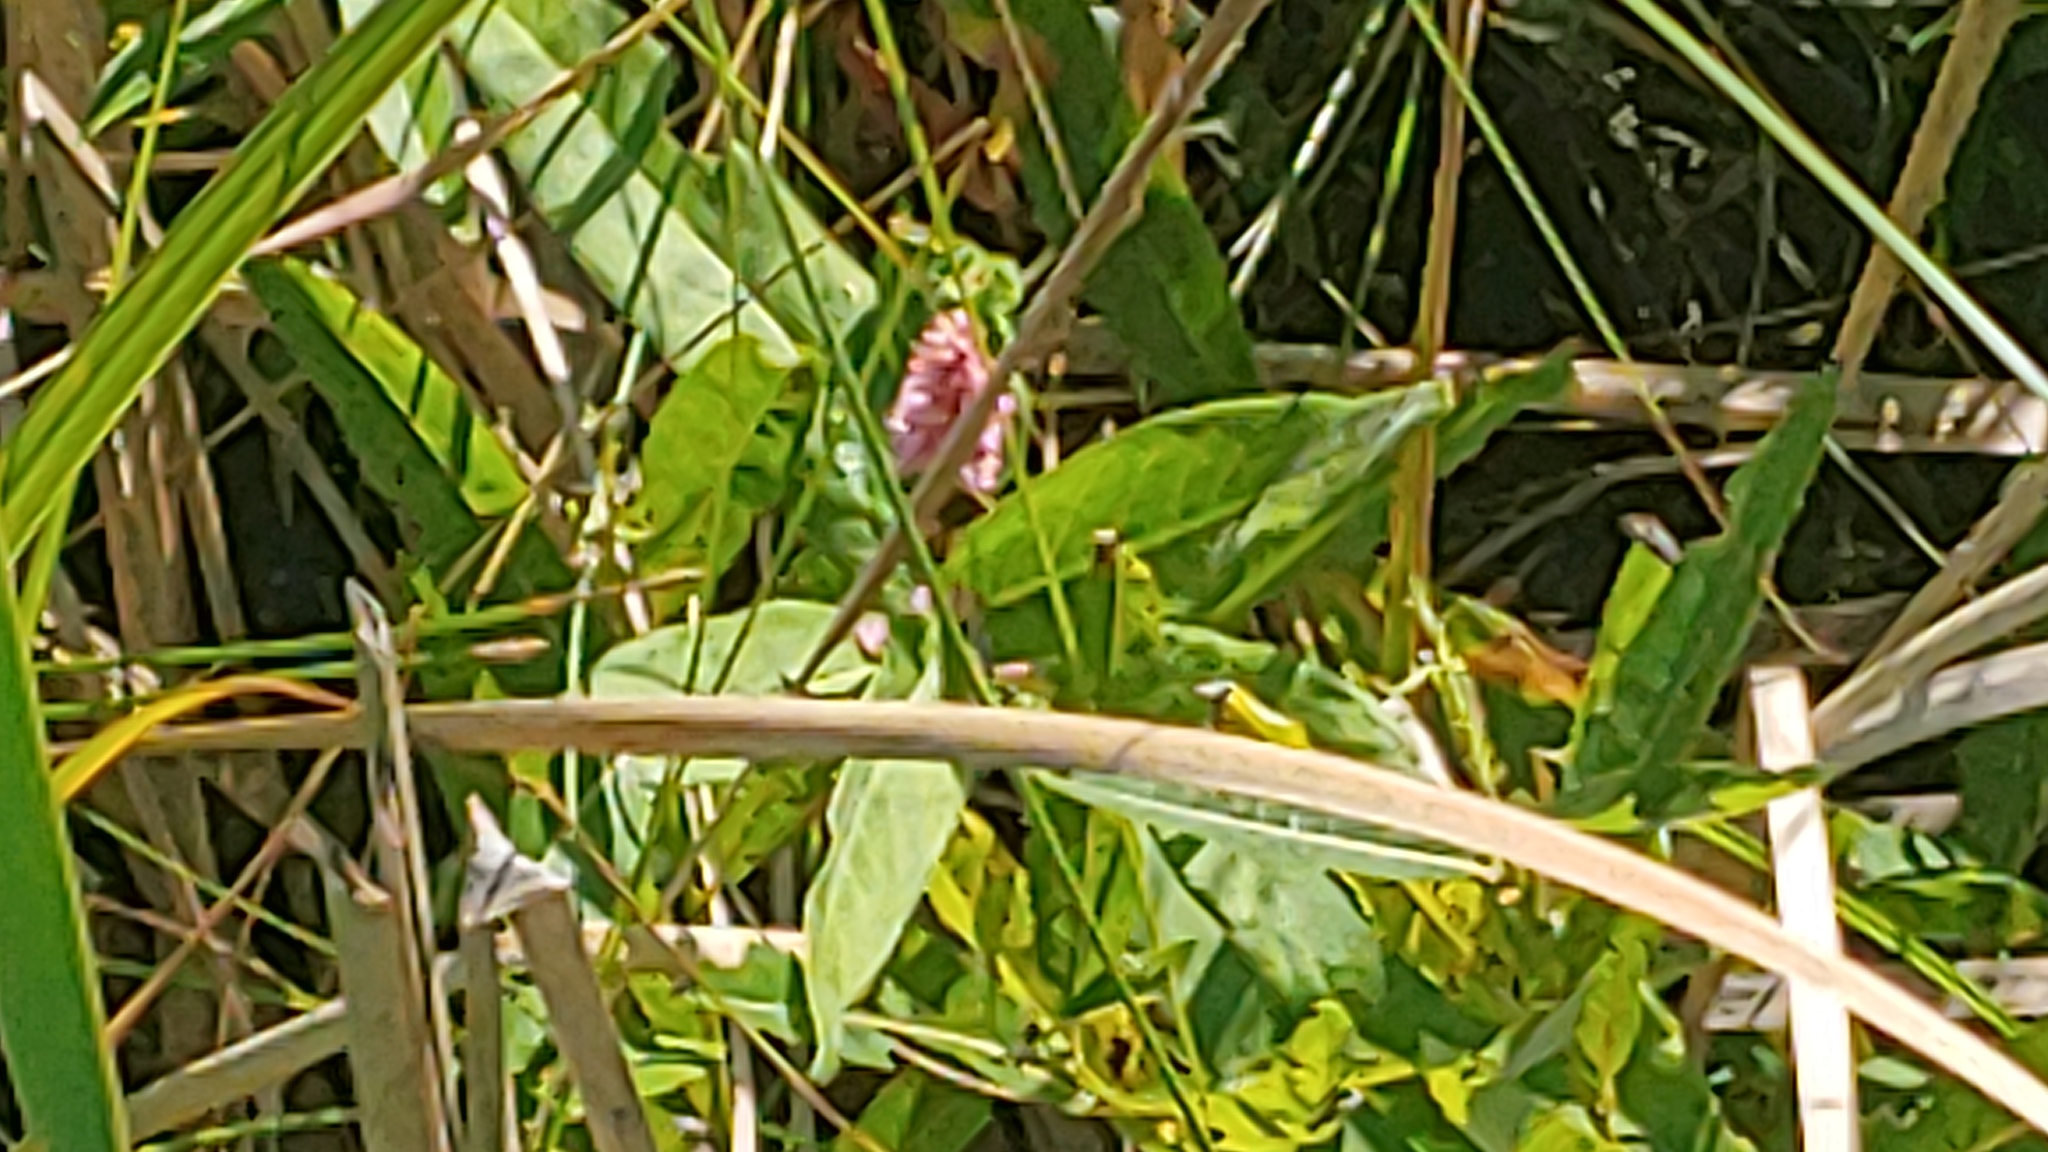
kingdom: Plantae
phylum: Tracheophyta
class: Magnoliopsida
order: Caryophyllales
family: Polygonaceae
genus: Persicaria
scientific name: Persicaria amphibia
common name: Amphibious bistort
